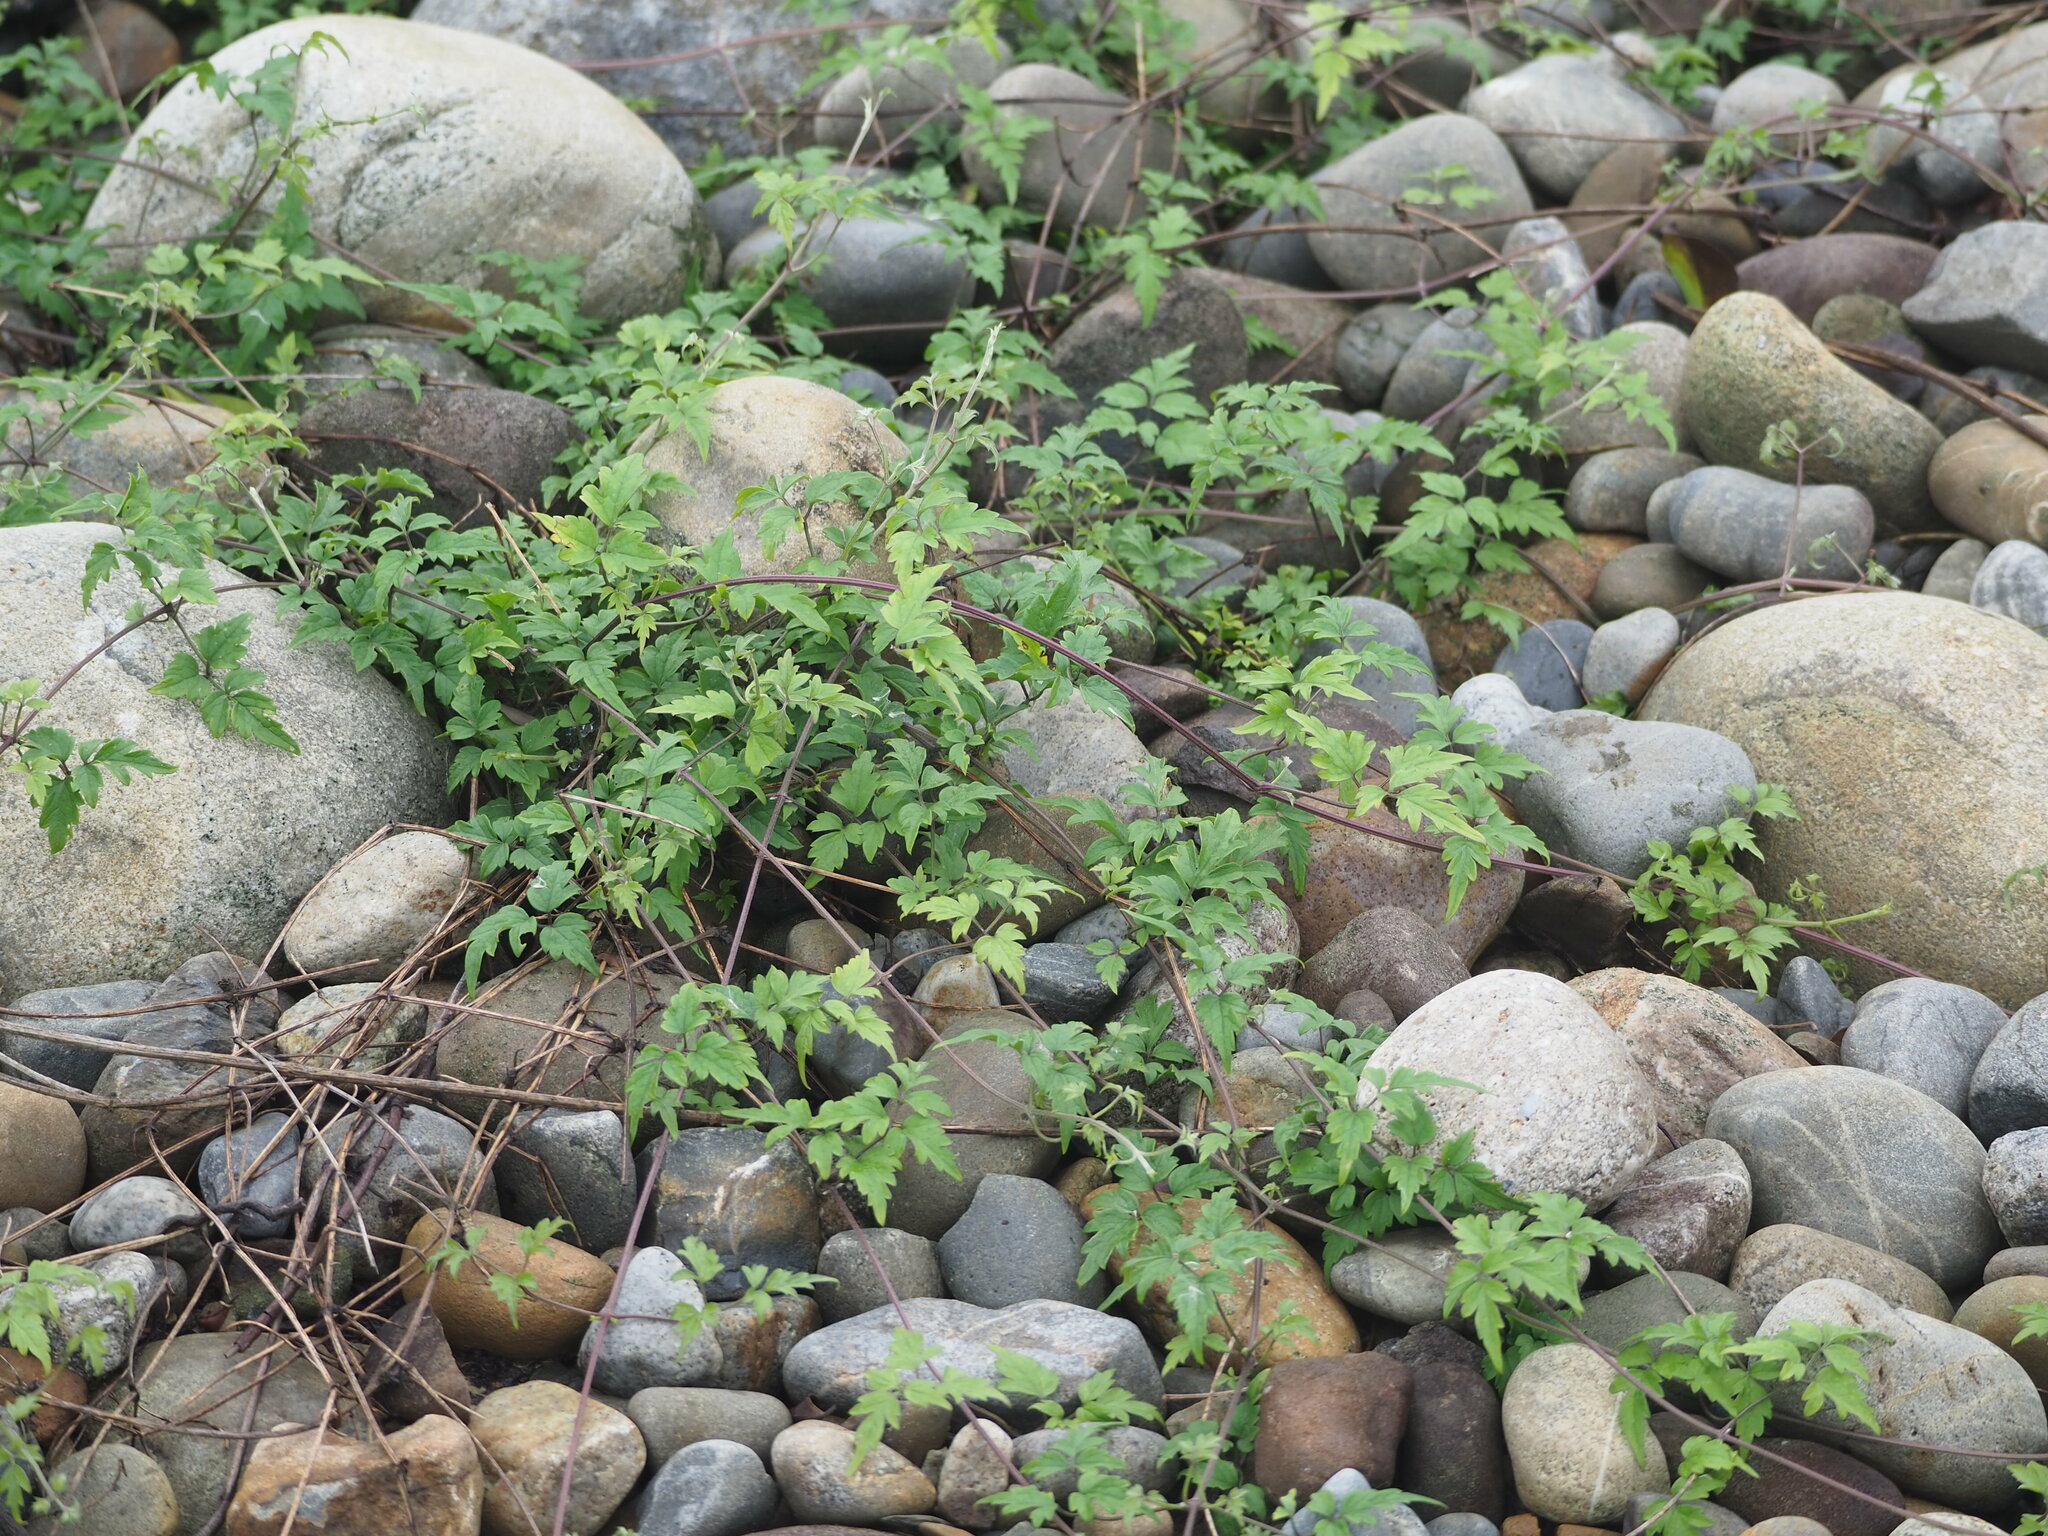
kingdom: Plantae
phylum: Tracheophyta
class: Magnoliopsida
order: Ranunculales
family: Ranunculaceae
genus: Clematis
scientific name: Clematis grata
